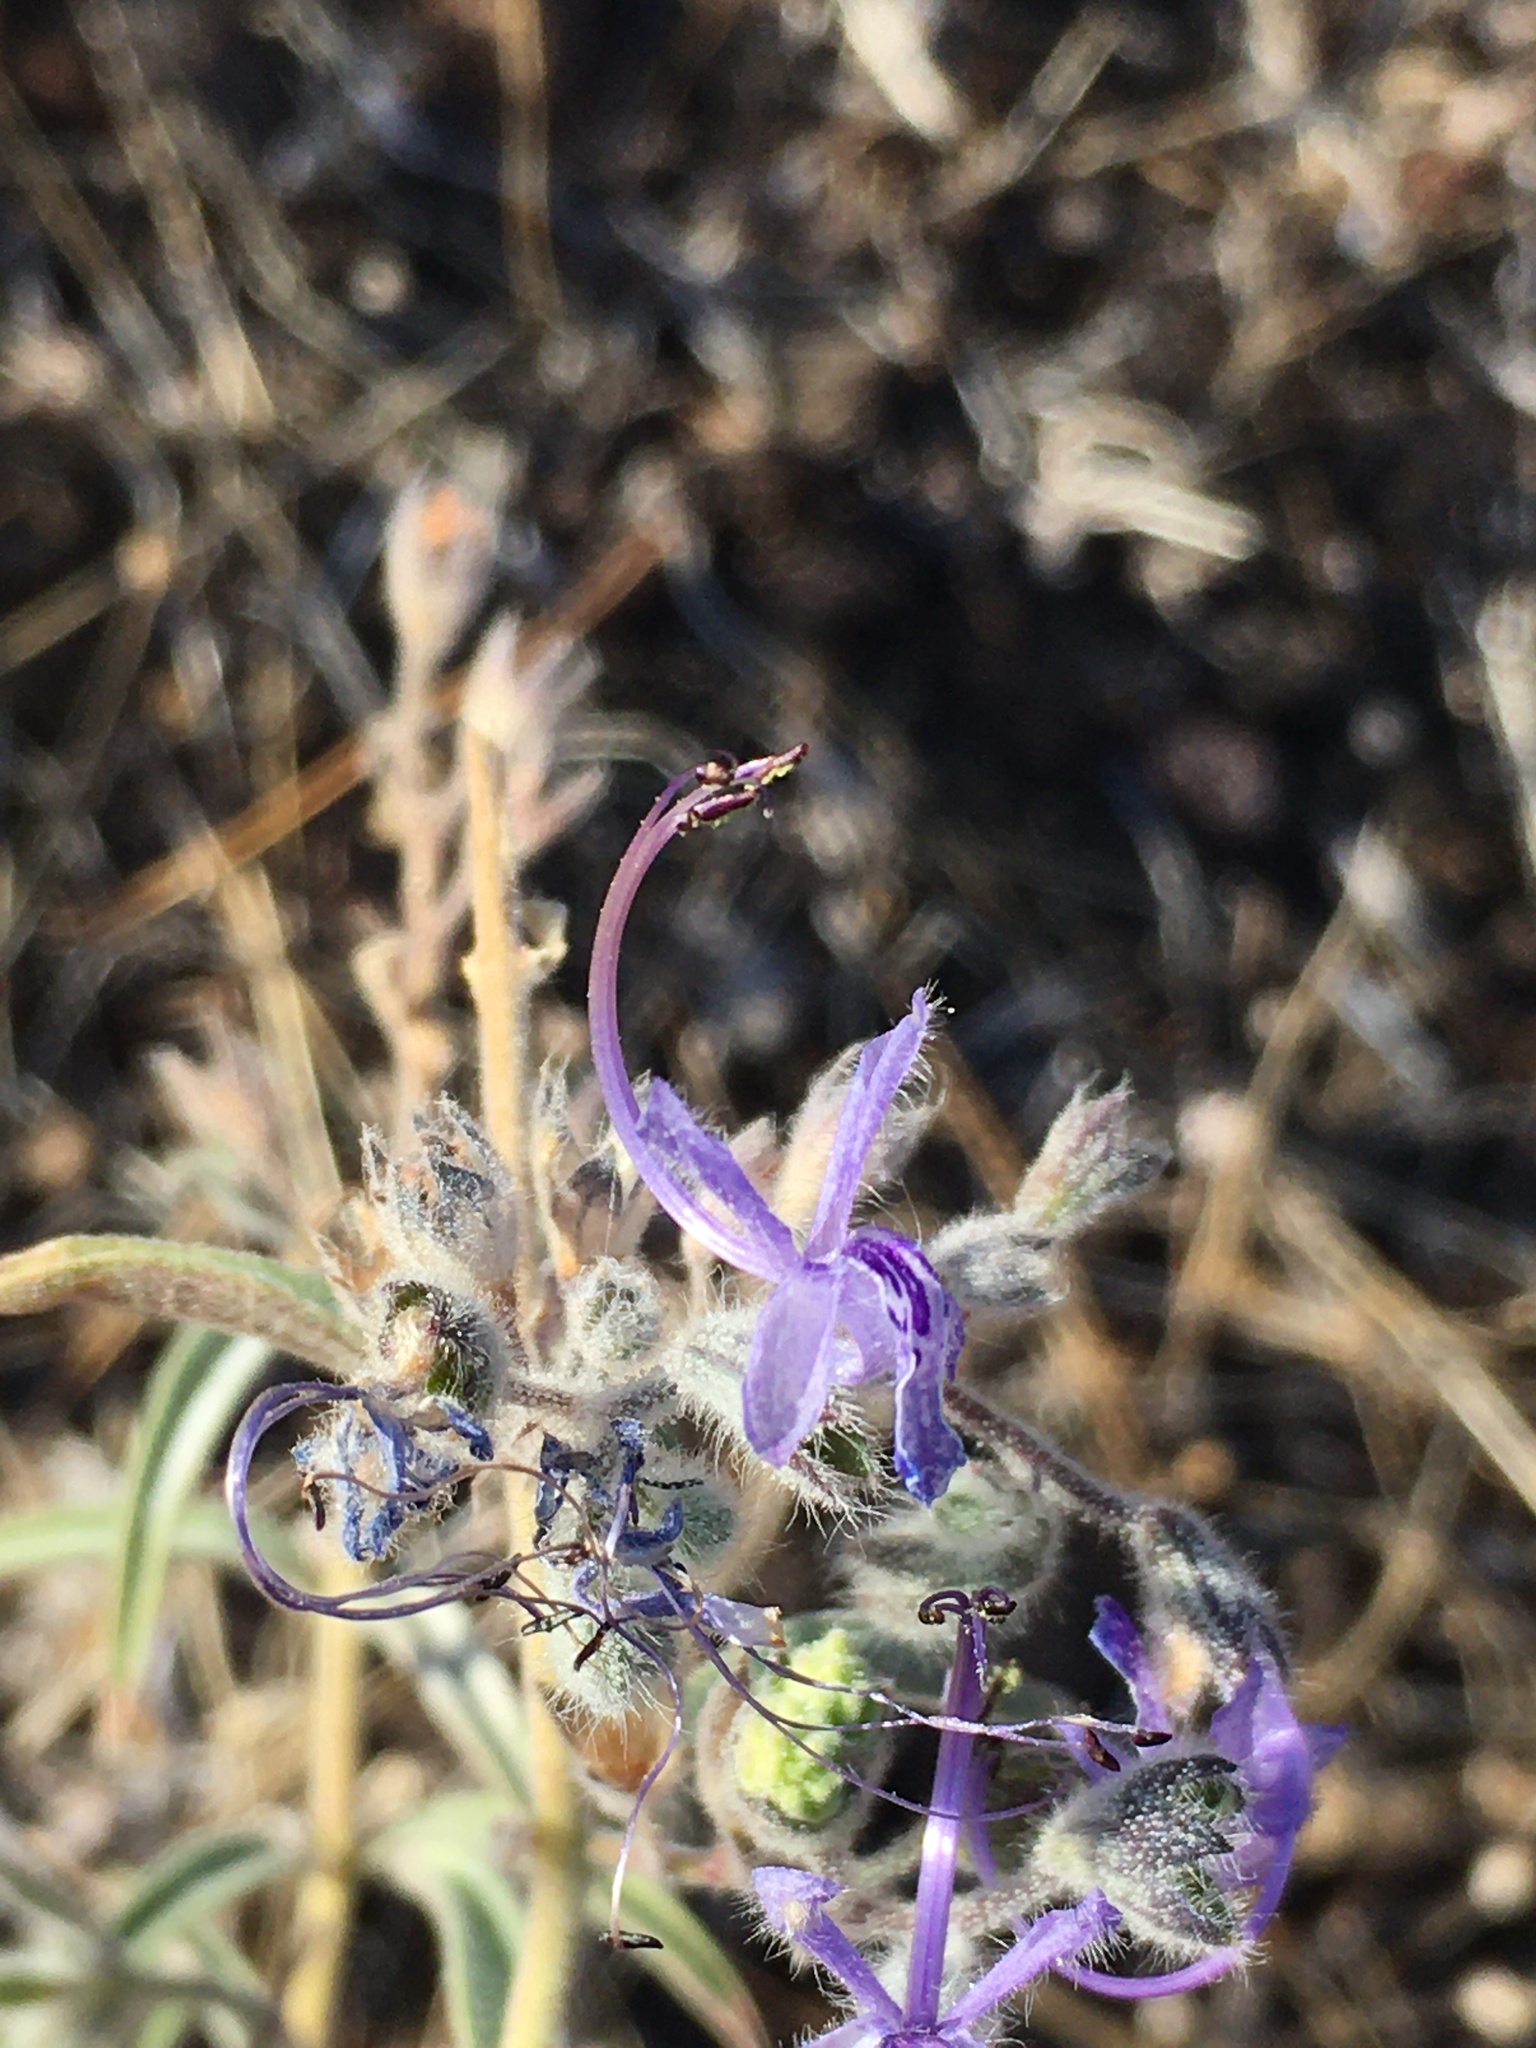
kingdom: Plantae
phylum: Tracheophyta
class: Magnoliopsida
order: Lamiales
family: Lamiaceae
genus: Trichostema
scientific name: Trichostema lanceolatum
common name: Vinegar-weed
